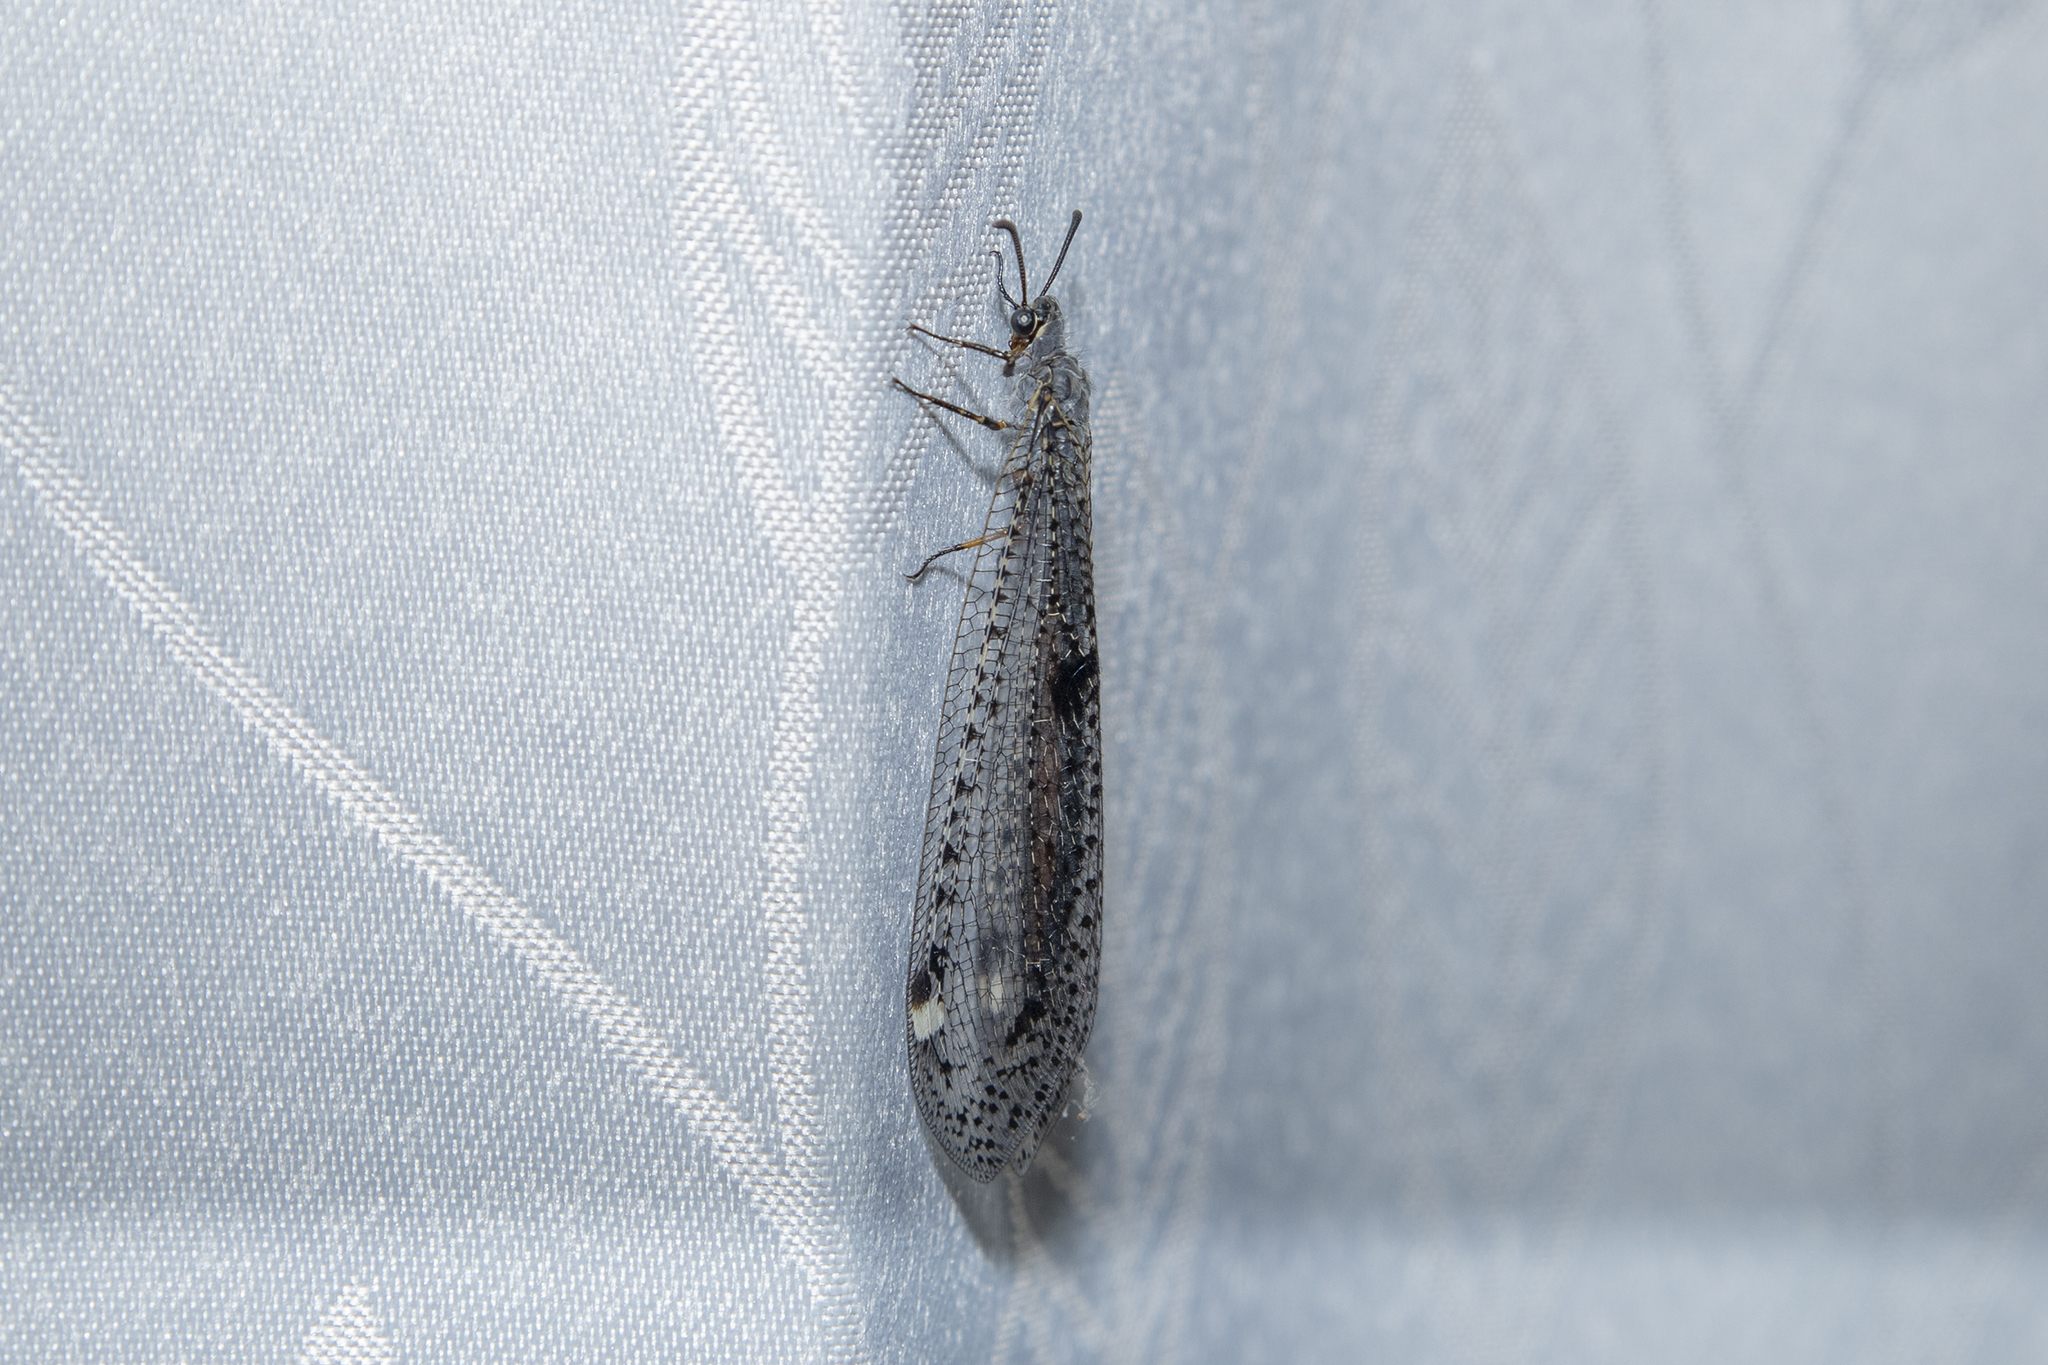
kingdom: Animalia
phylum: Arthropoda
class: Insecta
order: Neuroptera
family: Myrmeleontidae
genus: Weeleus
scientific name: Weeleus acutus
